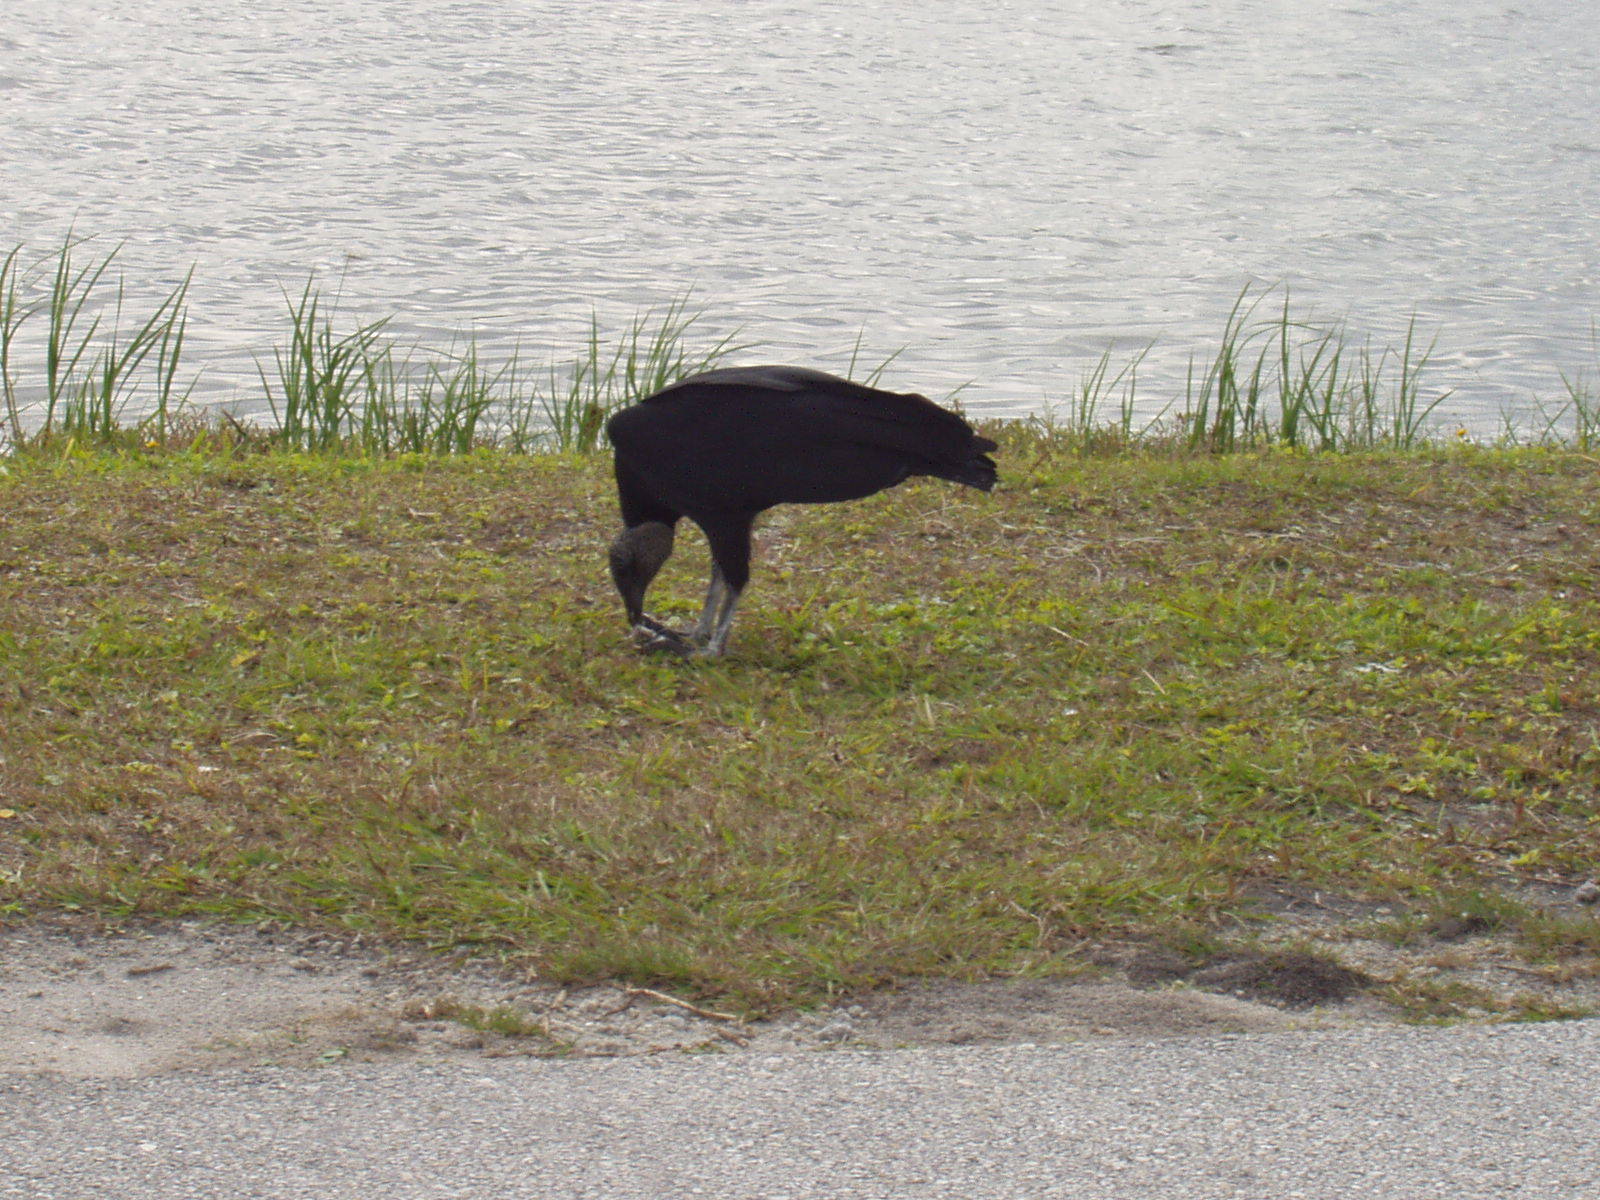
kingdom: Animalia
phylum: Chordata
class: Aves
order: Accipitriformes
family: Cathartidae
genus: Coragyps
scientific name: Coragyps atratus
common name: Black vulture
